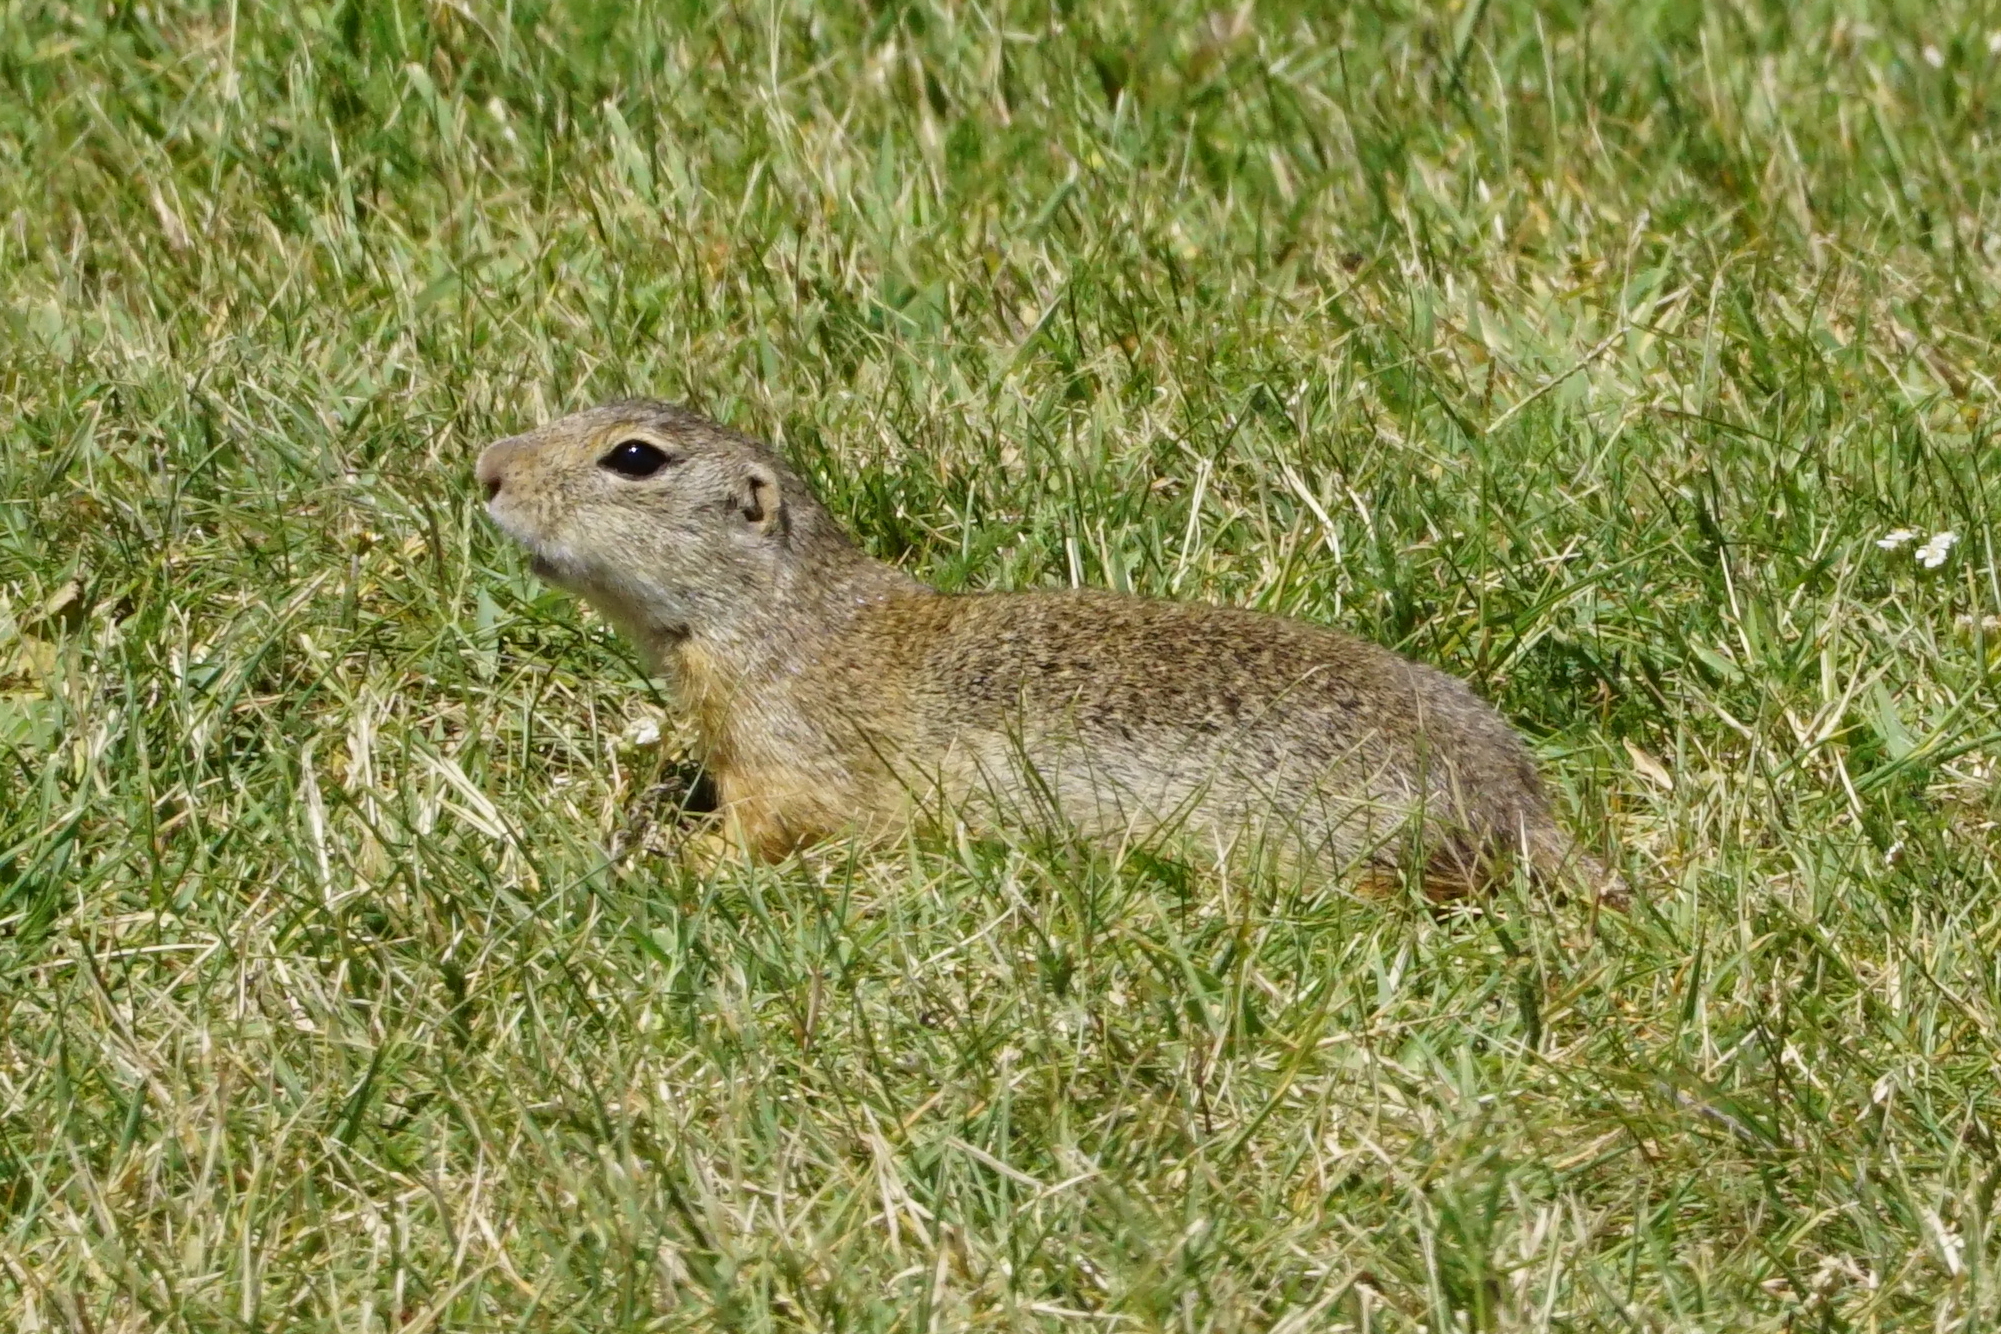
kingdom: Animalia
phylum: Chordata
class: Mammalia
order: Rodentia
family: Sciuridae
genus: Spermophilus
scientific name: Spermophilus citellus
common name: European ground squirrel
